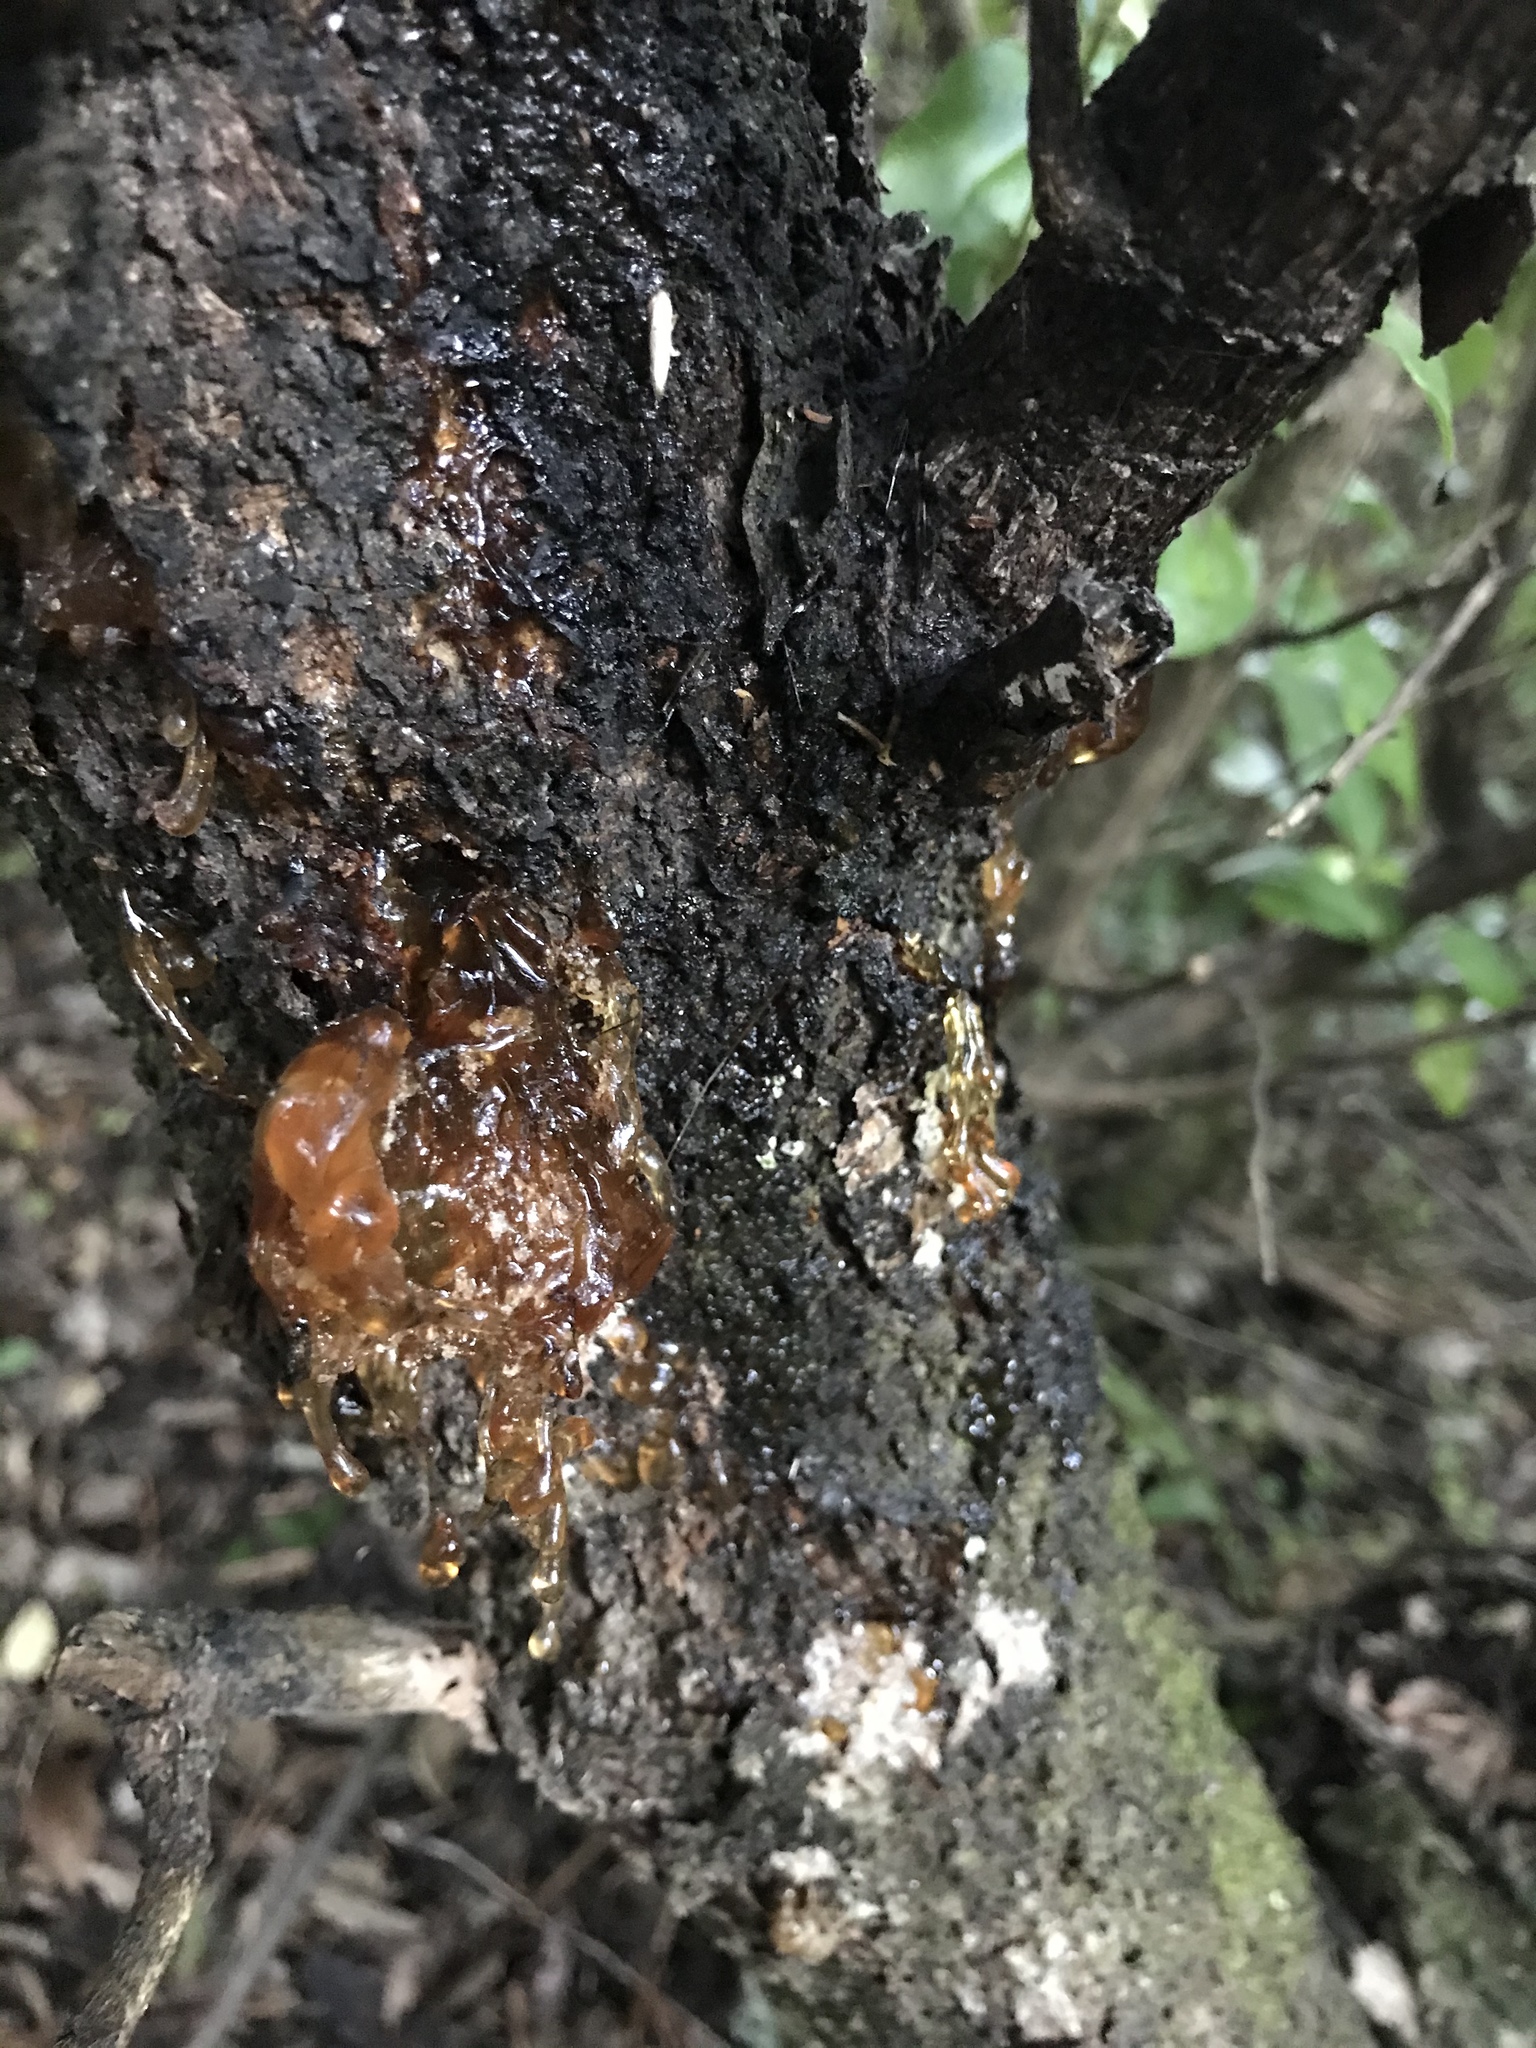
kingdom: Plantae
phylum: Tracheophyta
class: Magnoliopsida
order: Apiales
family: Araliaceae
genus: Neopanax
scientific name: Neopanax arboreus
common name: Five-fingers
